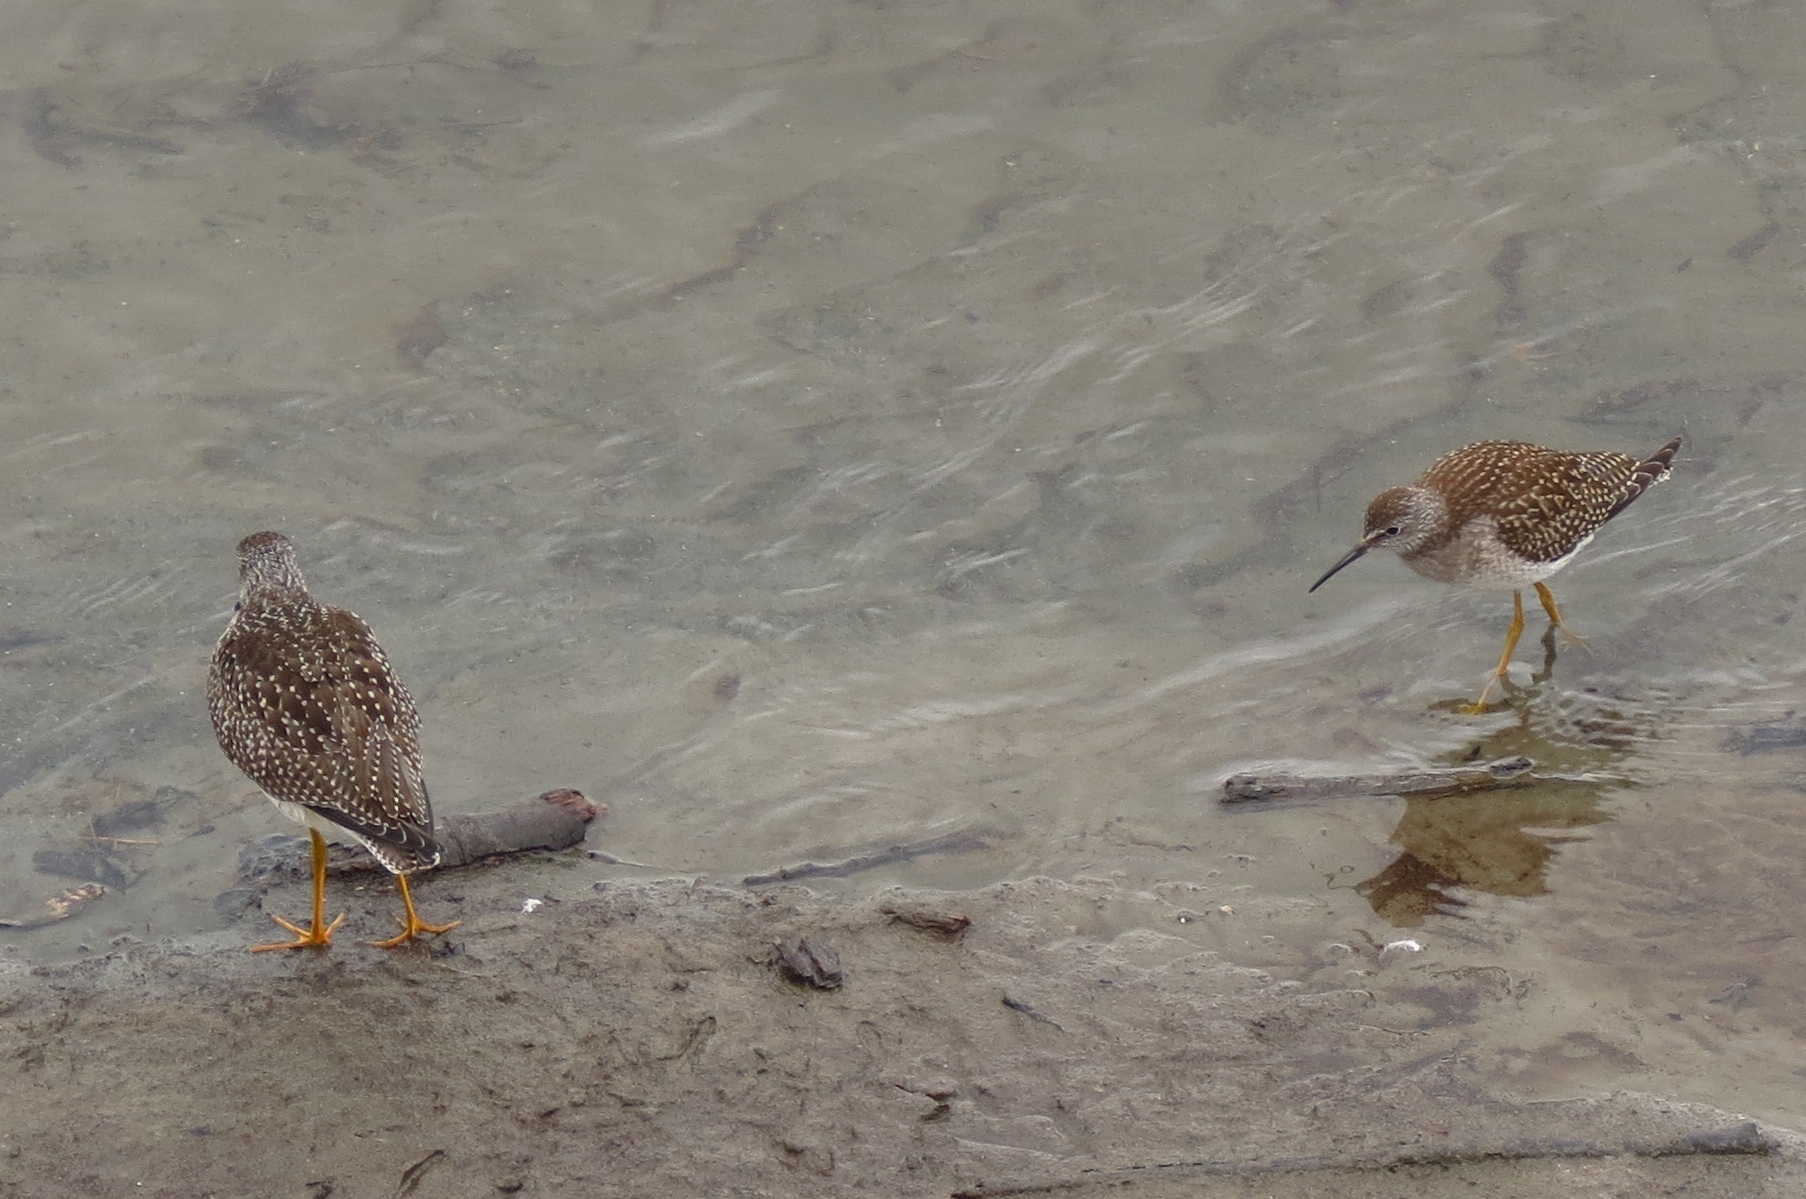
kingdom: Animalia
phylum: Chordata
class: Aves
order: Charadriiformes
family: Scolopacidae
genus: Tringa
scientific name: Tringa flavipes
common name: Lesser yellowlegs
